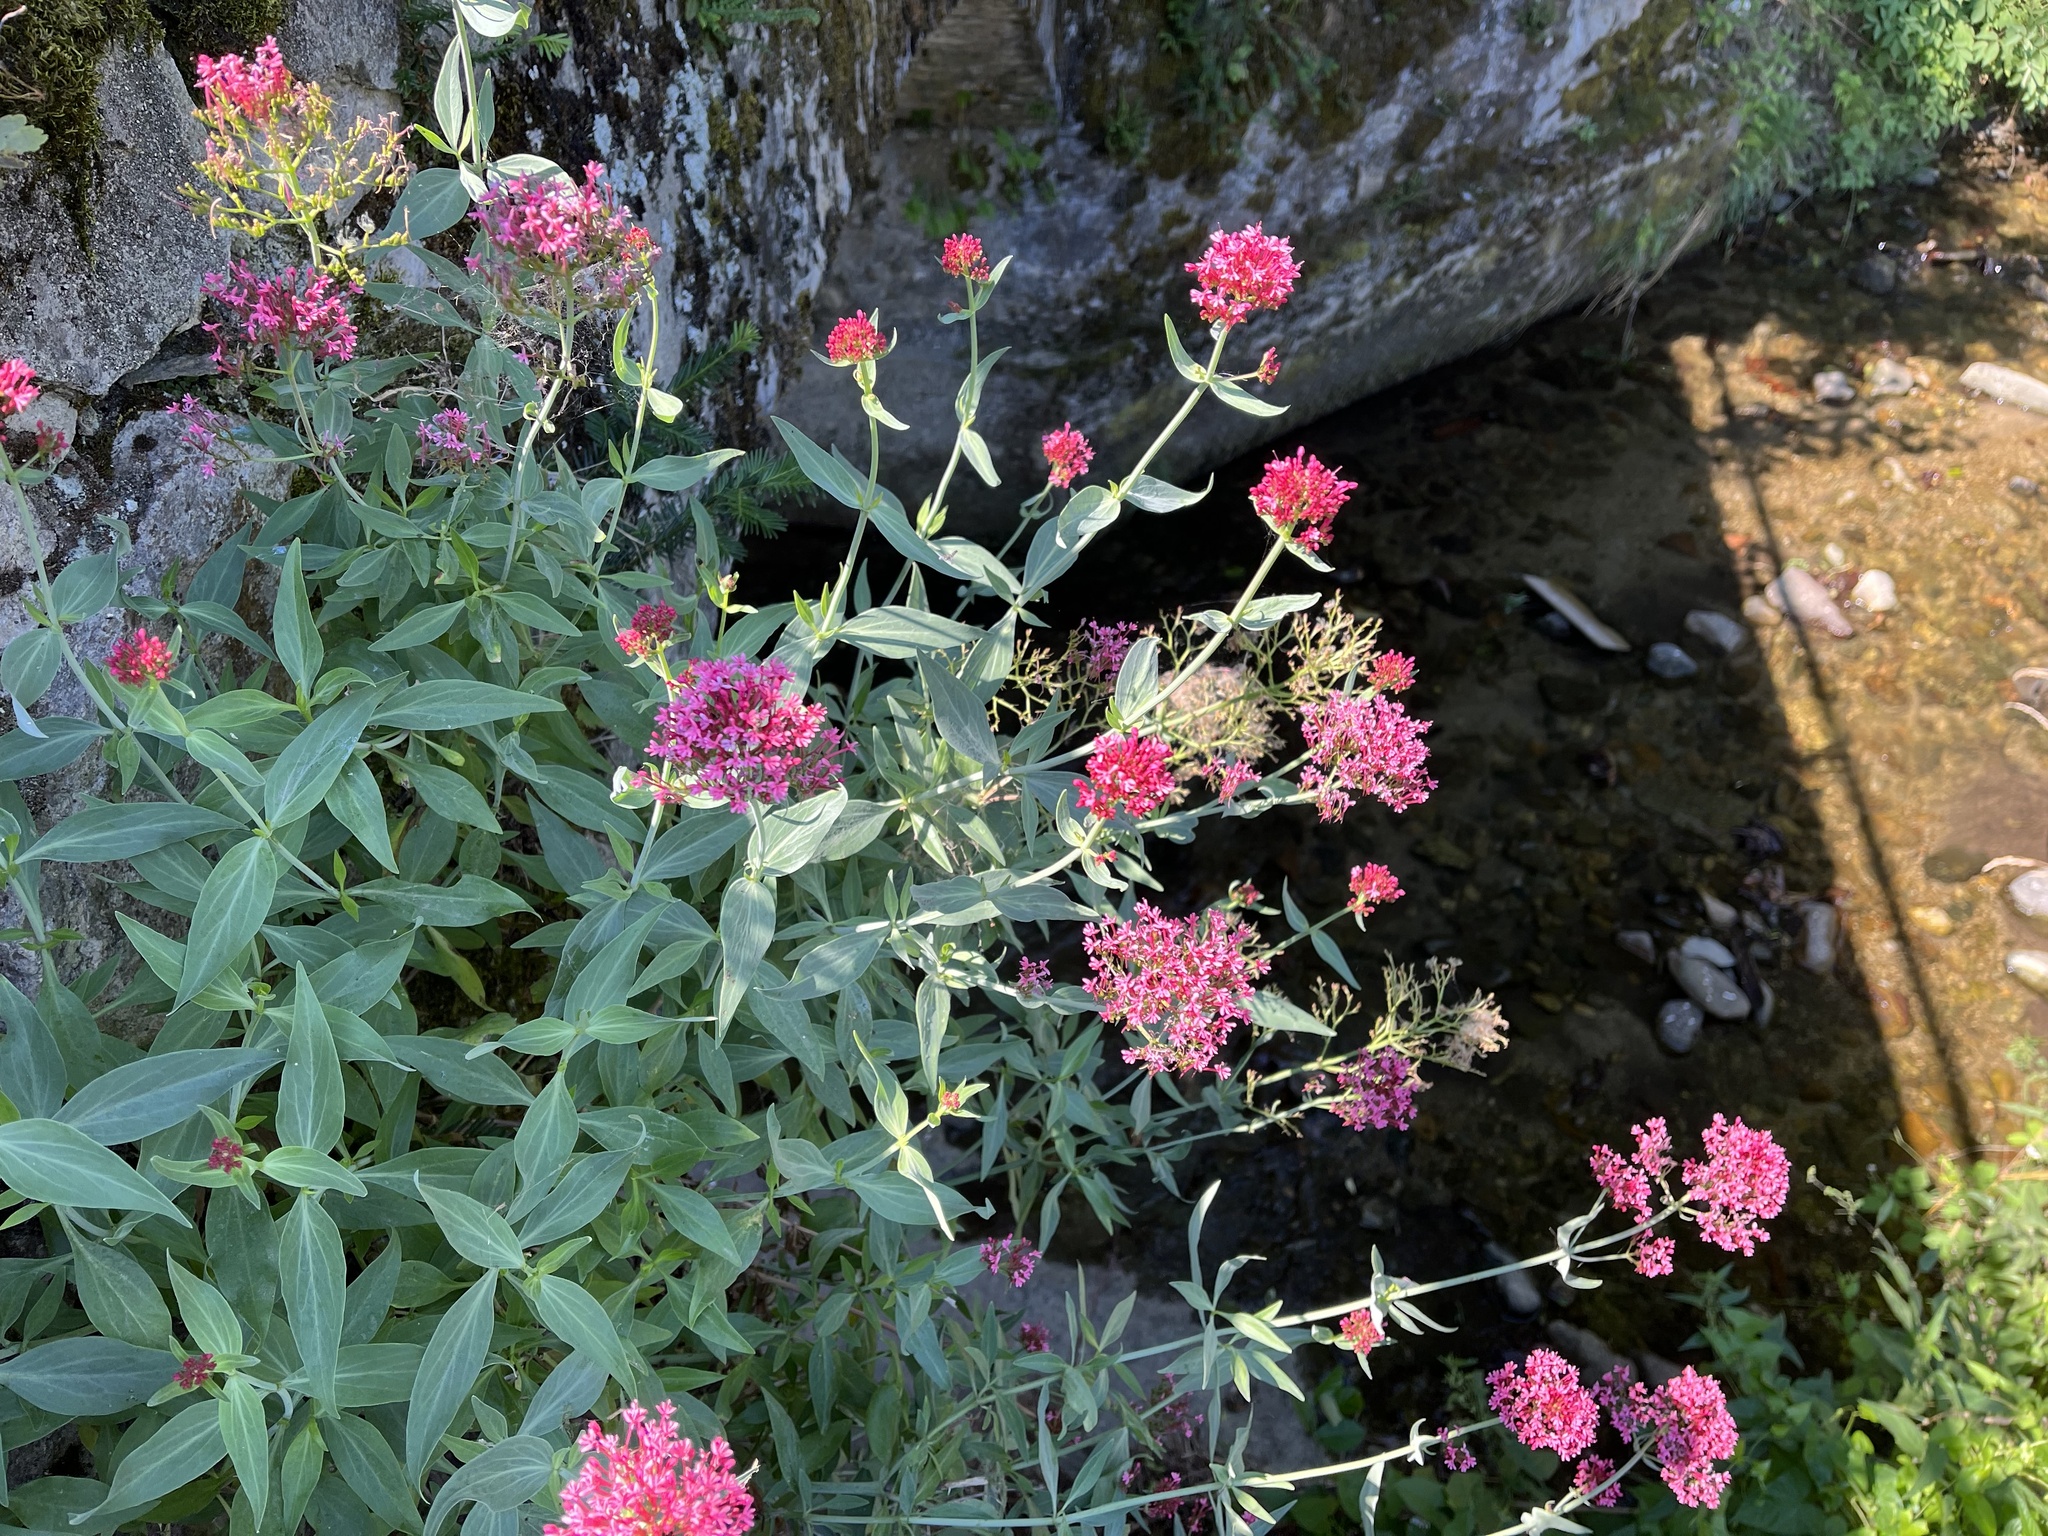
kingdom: Plantae
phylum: Tracheophyta
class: Magnoliopsida
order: Dipsacales
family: Caprifoliaceae
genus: Centranthus
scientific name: Centranthus ruber
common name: Red valerian
